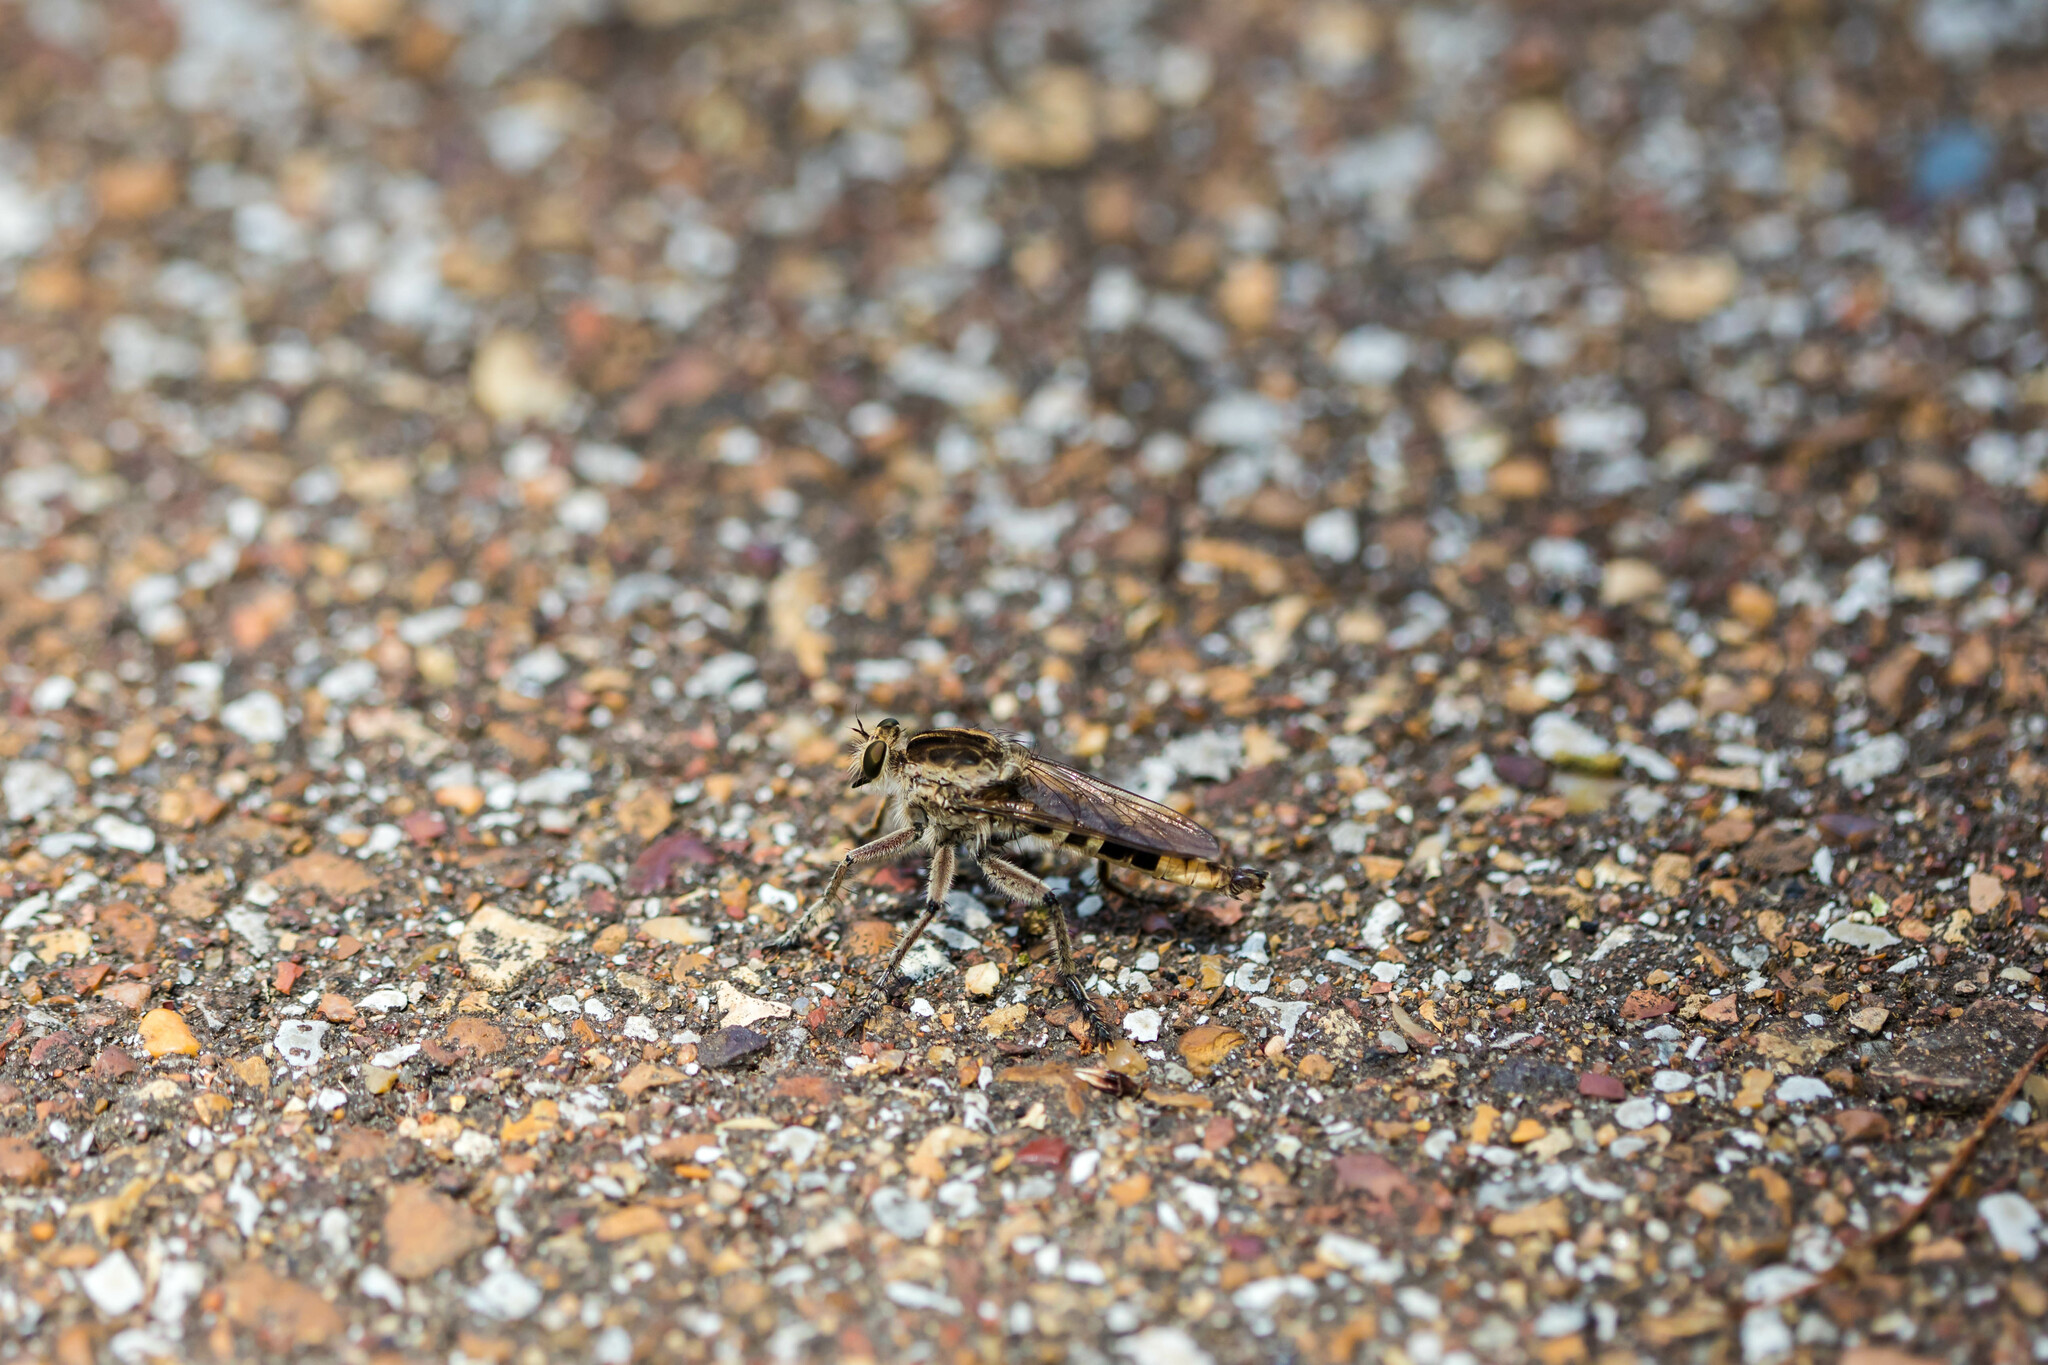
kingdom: Animalia
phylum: Arthropoda
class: Insecta
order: Diptera
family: Asilidae
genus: Triorla
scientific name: Triorla interrupta
